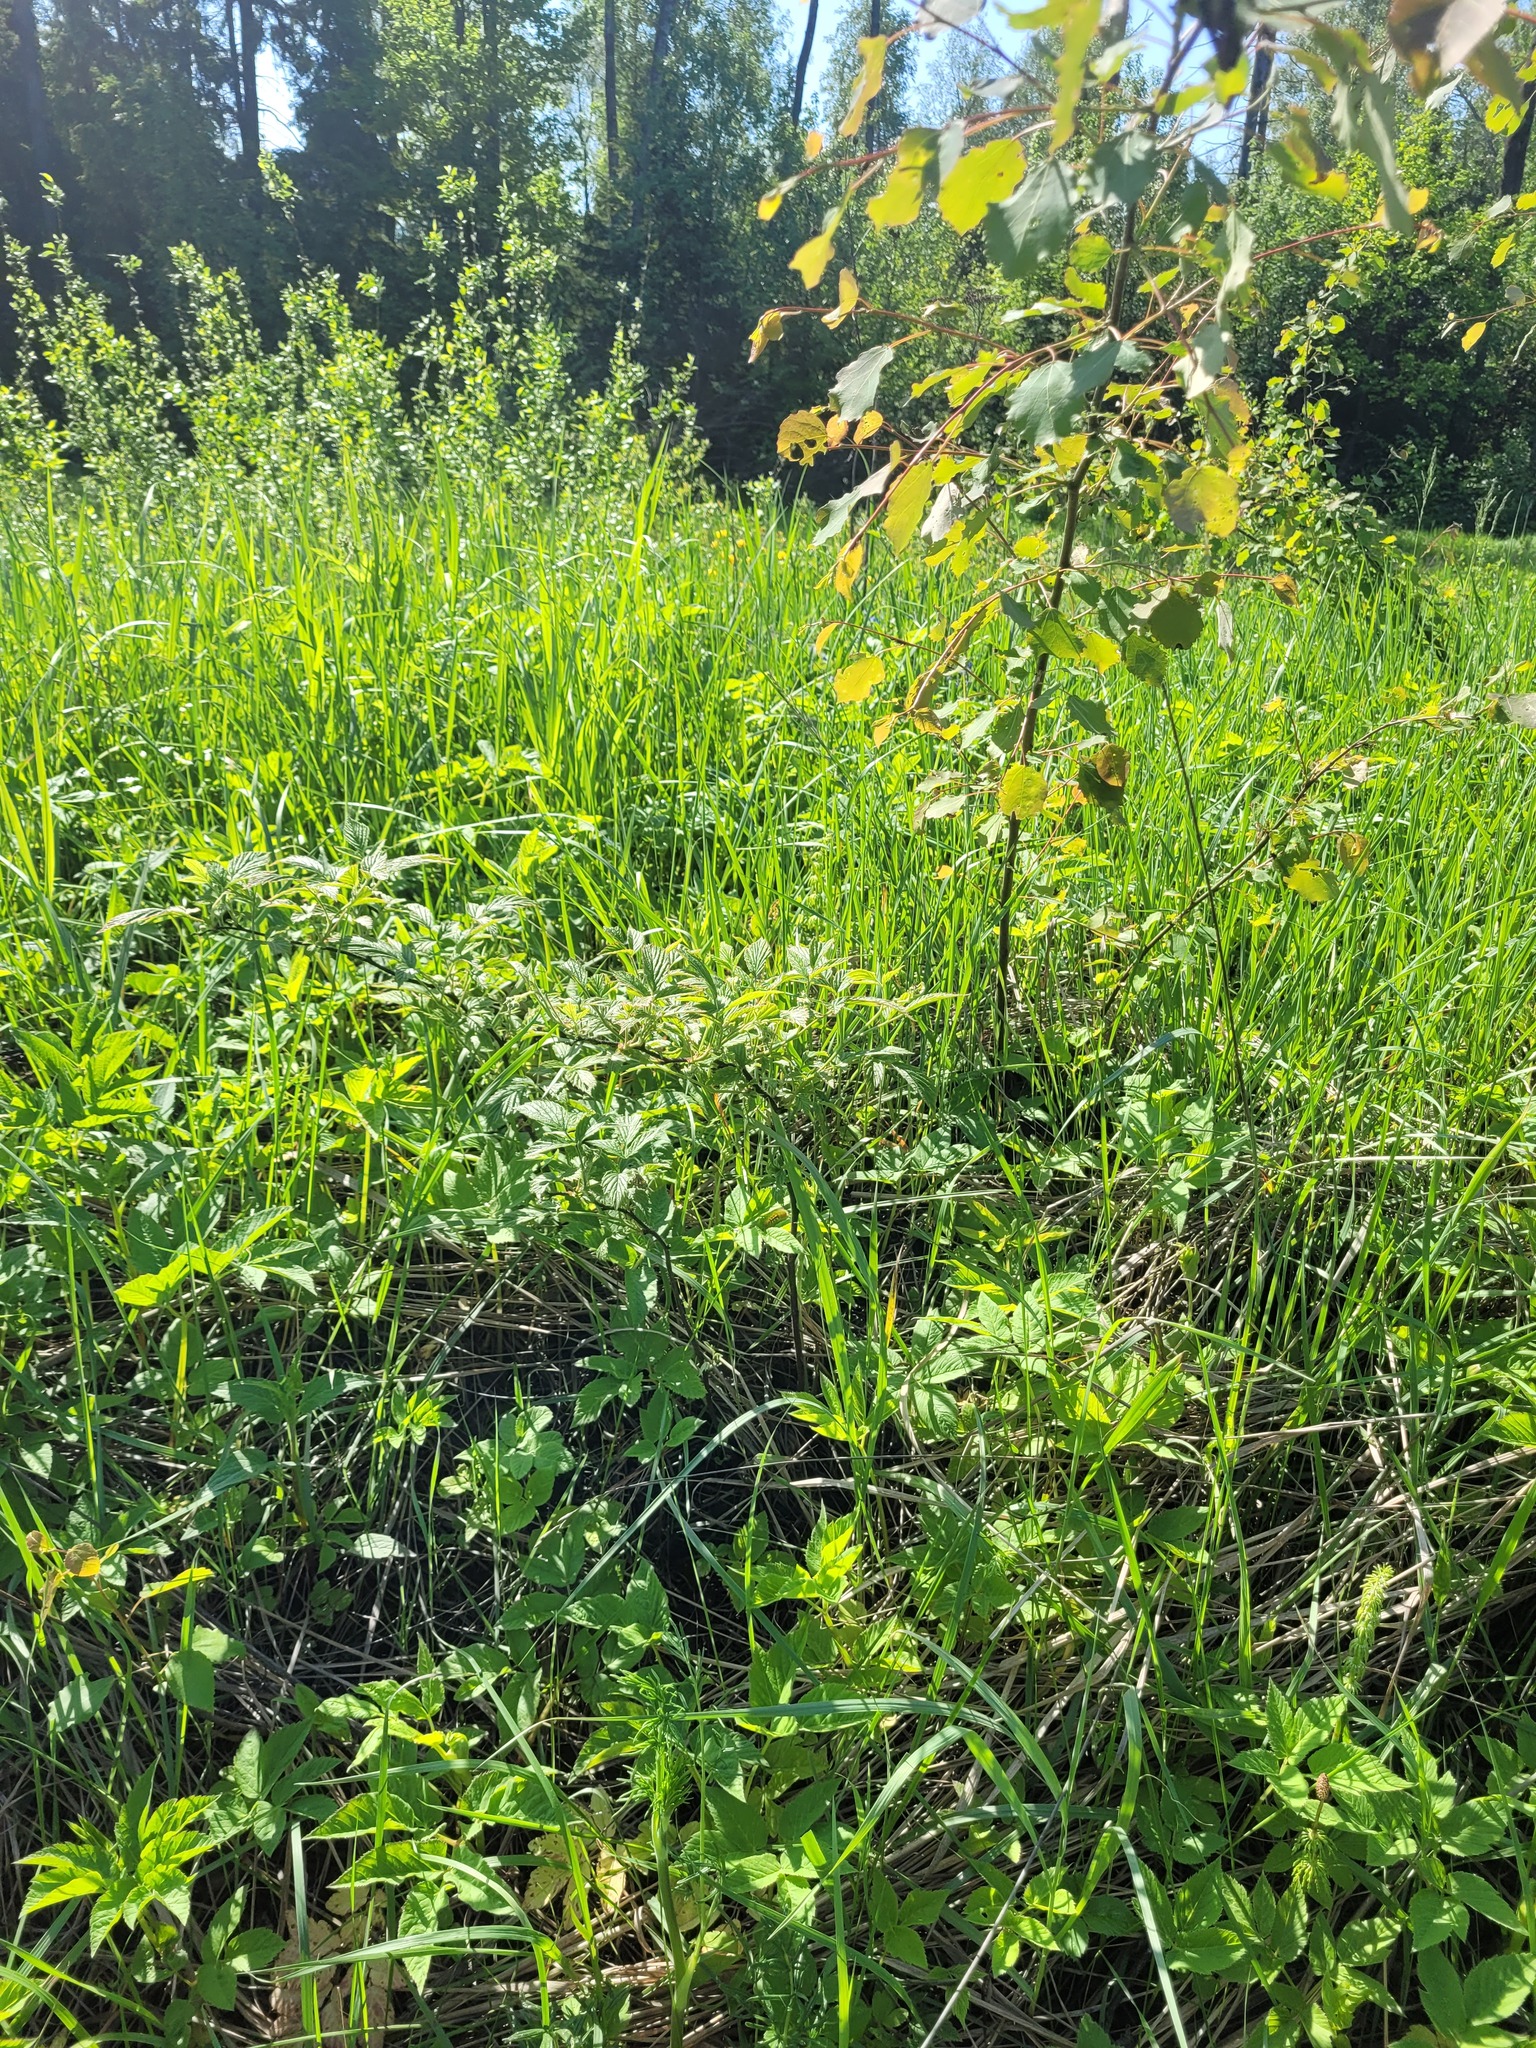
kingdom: Plantae
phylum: Tracheophyta
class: Magnoliopsida
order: Rosales
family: Rosaceae
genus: Rubus
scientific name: Rubus idaeus
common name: Raspberry
